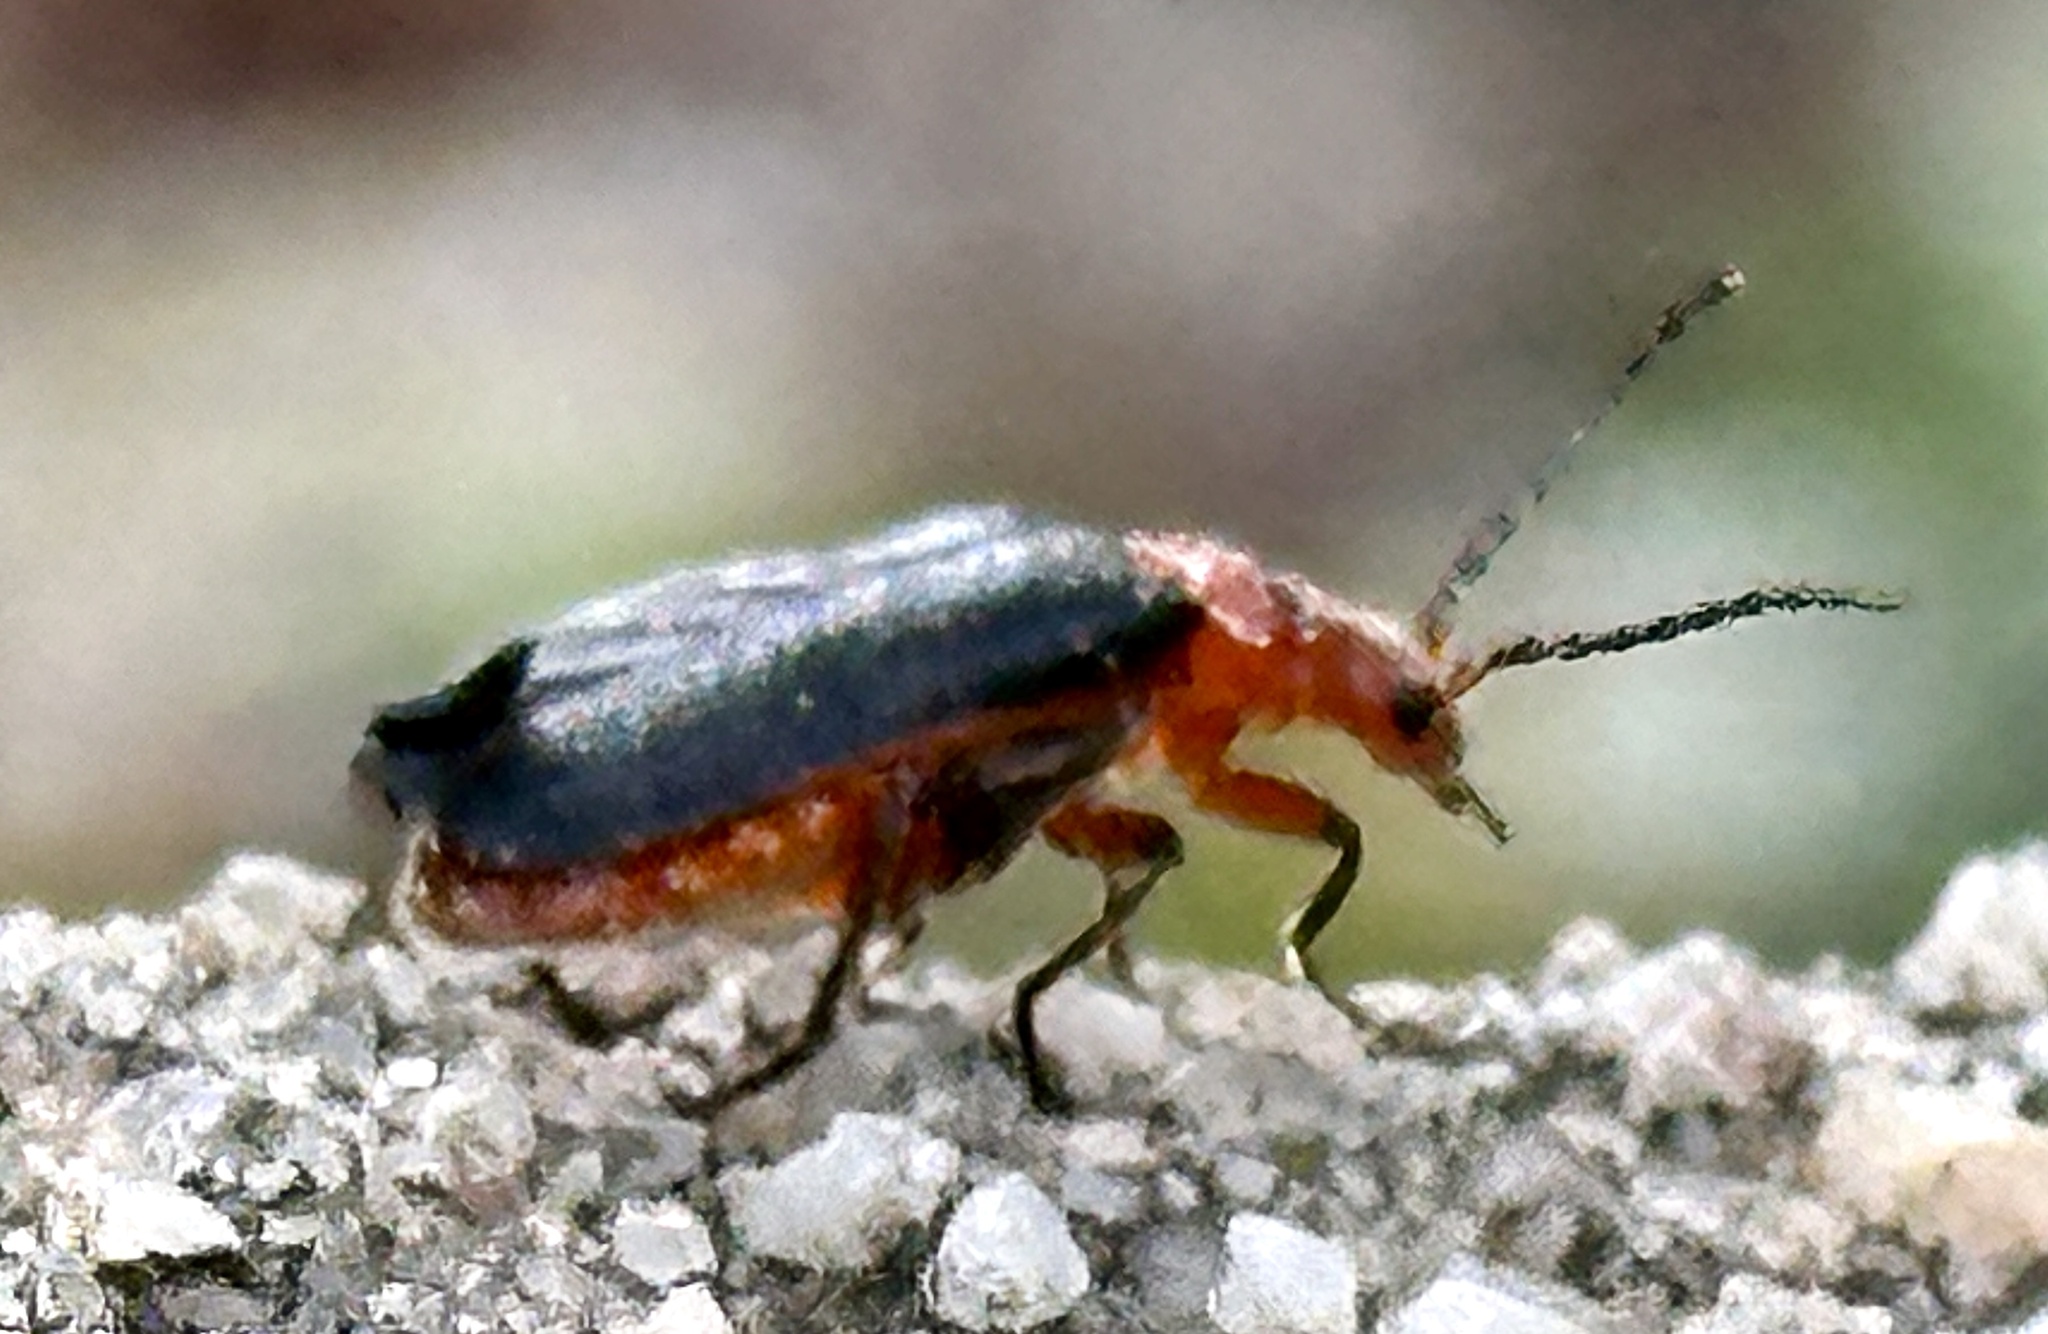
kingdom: Animalia
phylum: Arthropoda
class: Insecta
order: Coleoptera
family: Cantharidae
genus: Atalantycha
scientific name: Atalantycha bilineata
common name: Two-lined leatherwing
